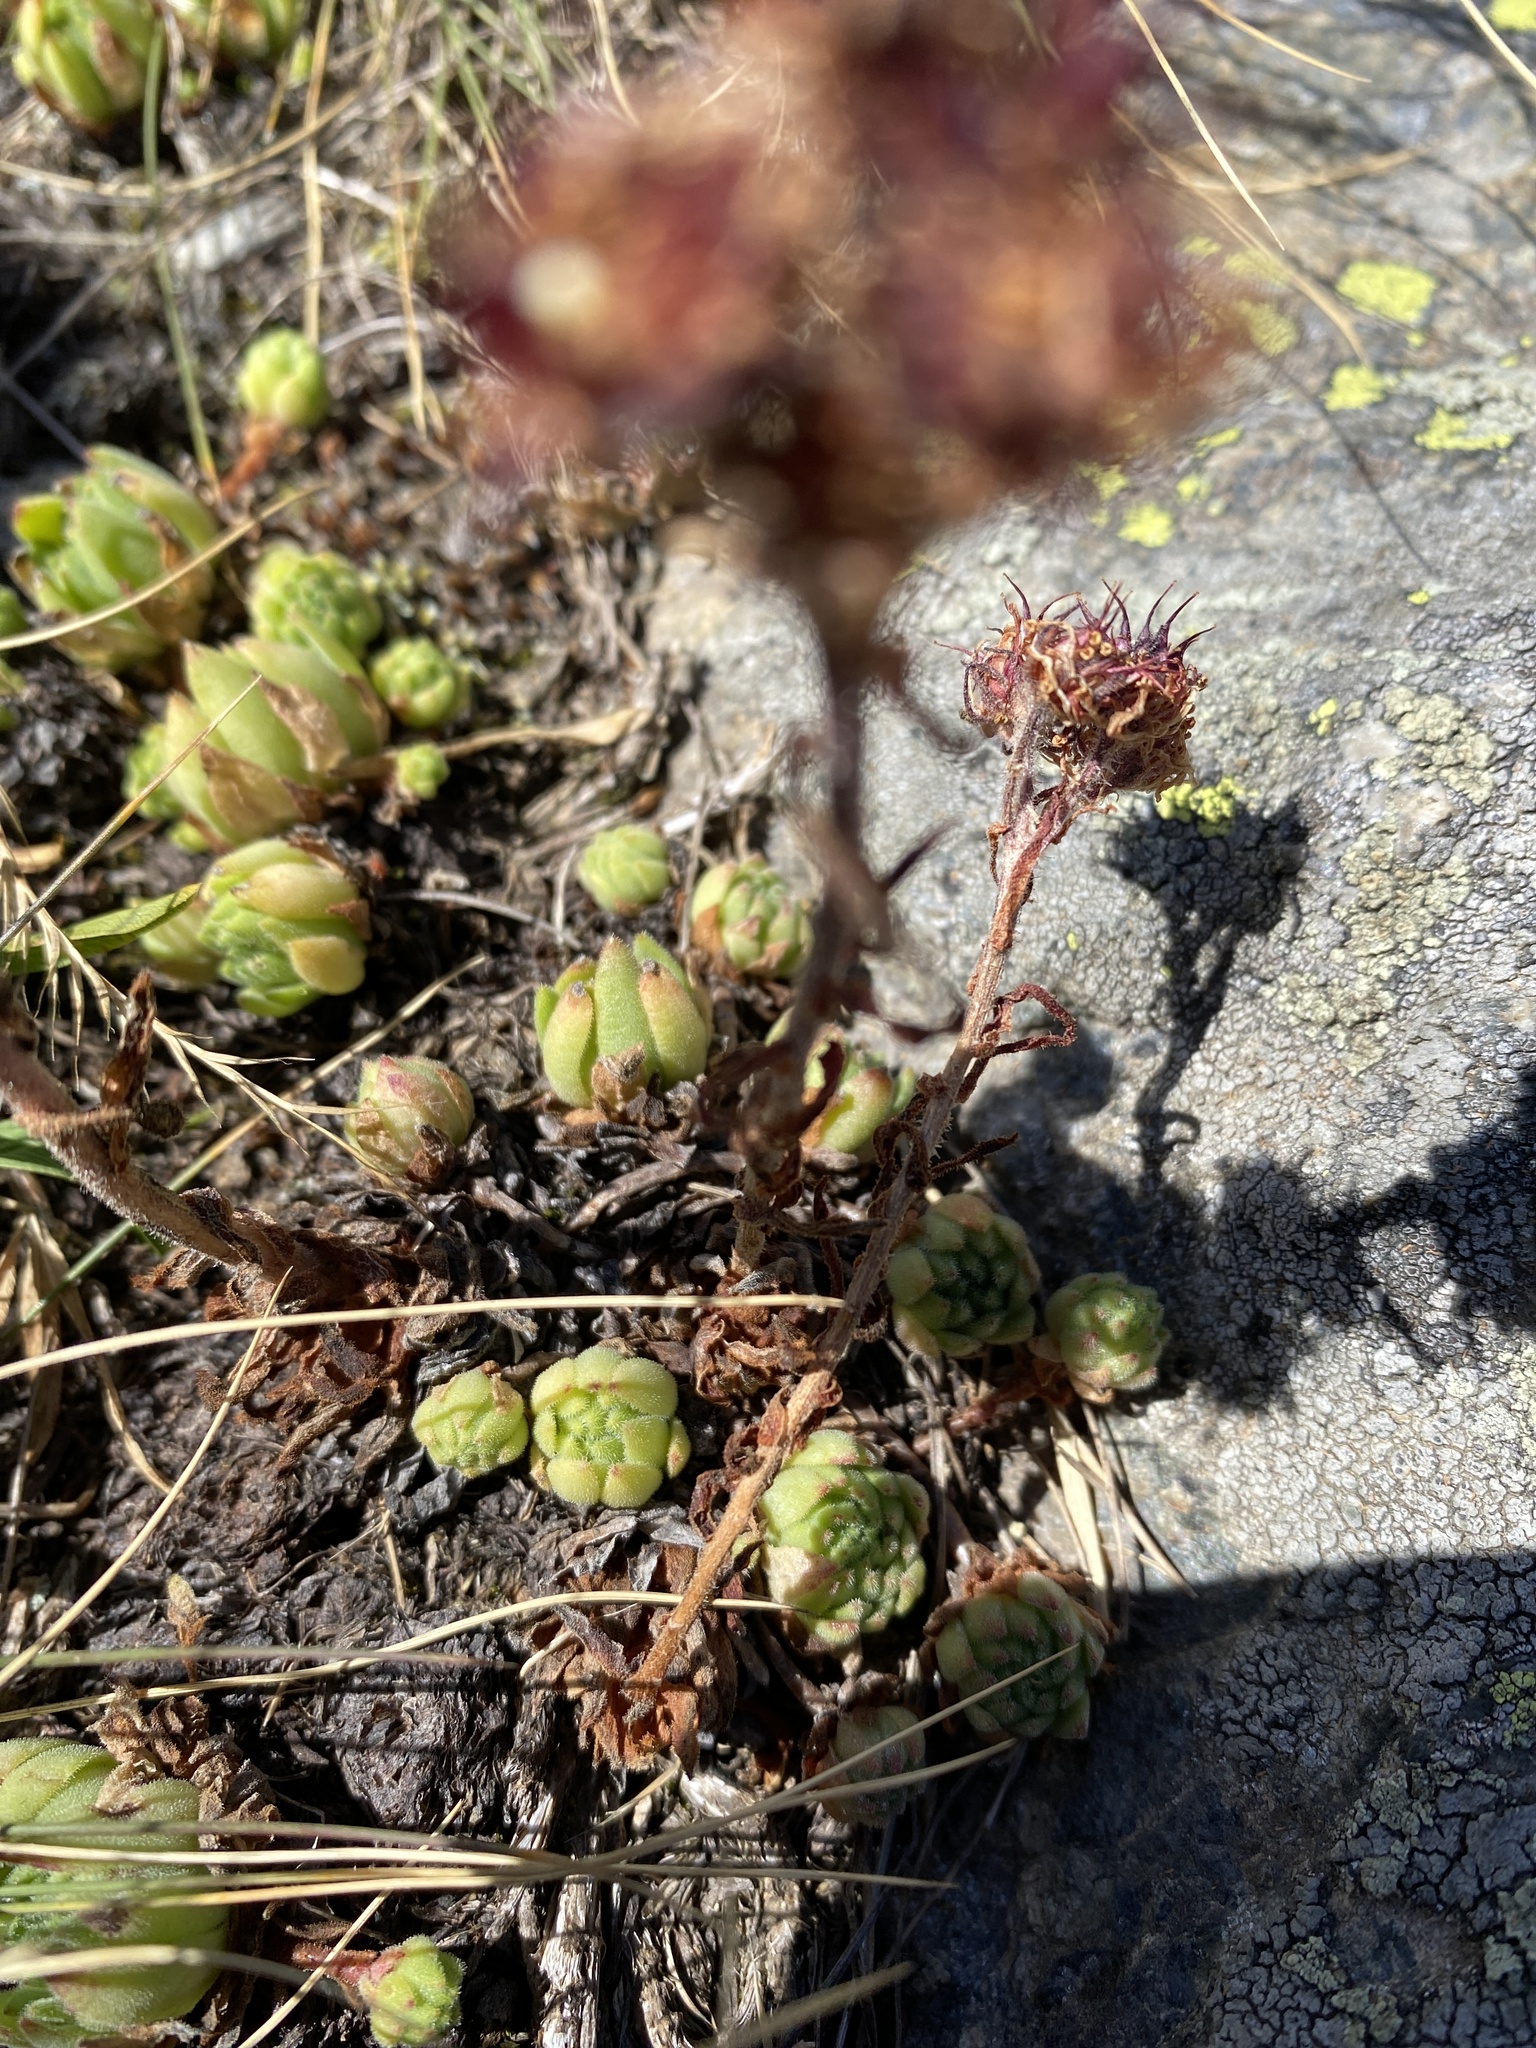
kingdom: Plantae
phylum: Tracheophyta
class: Magnoliopsida
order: Saxifragales
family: Crassulaceae
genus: Sempervivum
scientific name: Sempervivum montanum
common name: Mountain house-leek
